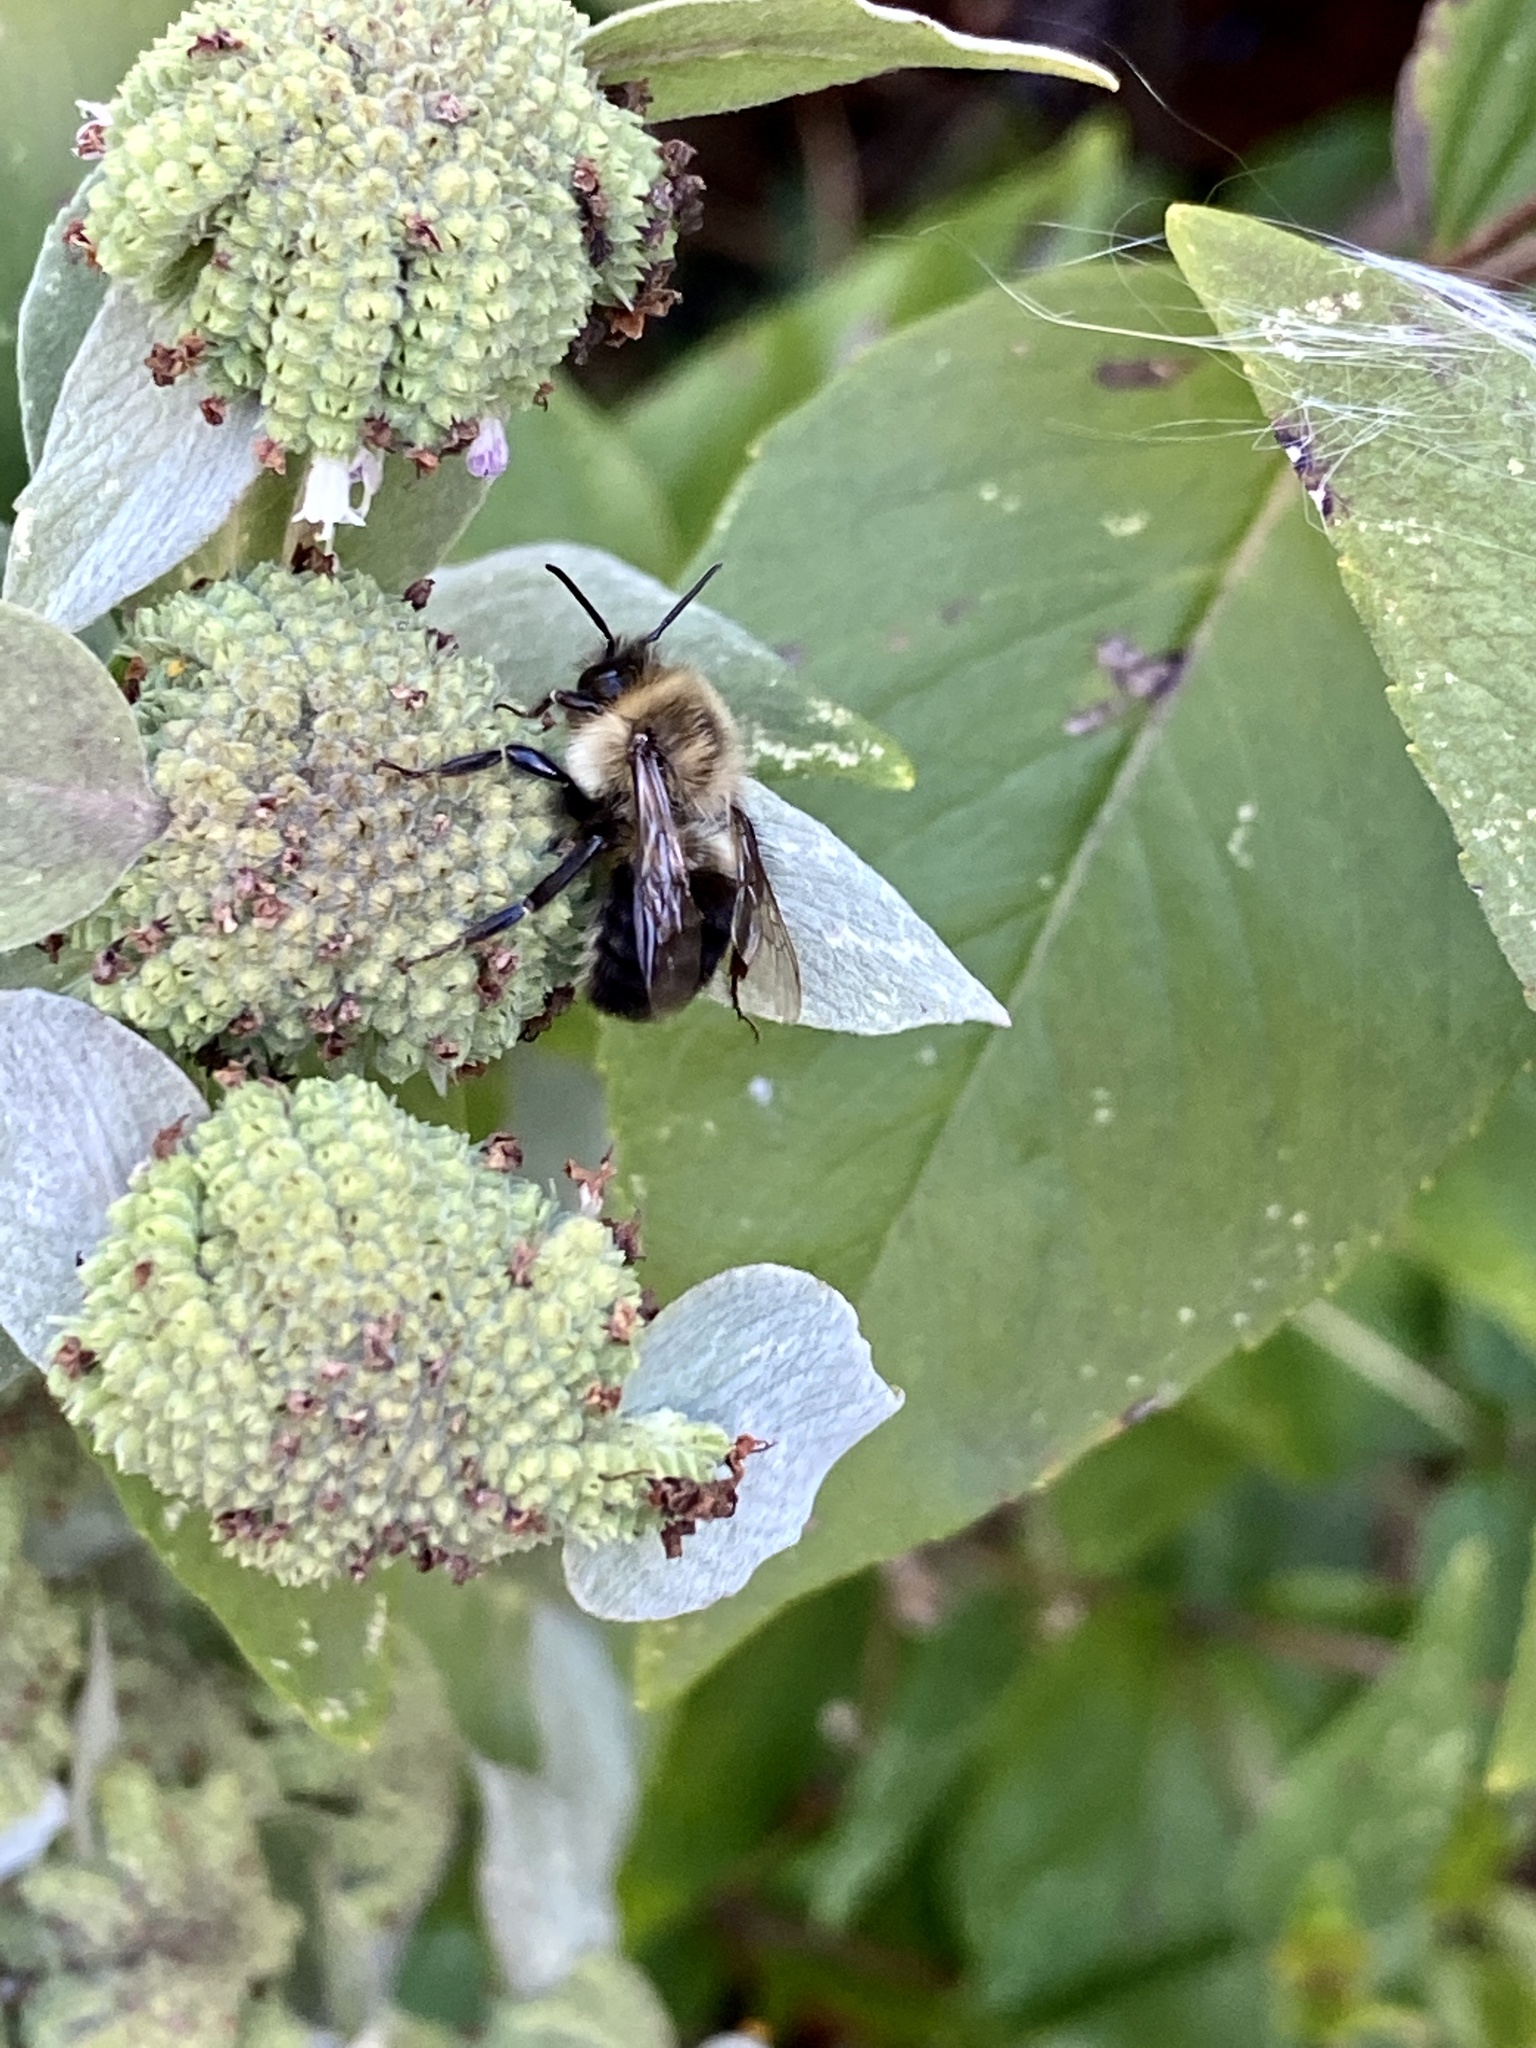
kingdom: Animalia
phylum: Arthropoda
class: Insecta
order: Hymenoptera
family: Apidae
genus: Bombus
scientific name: Bombus impatiens
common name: Common eastern bumble bee
